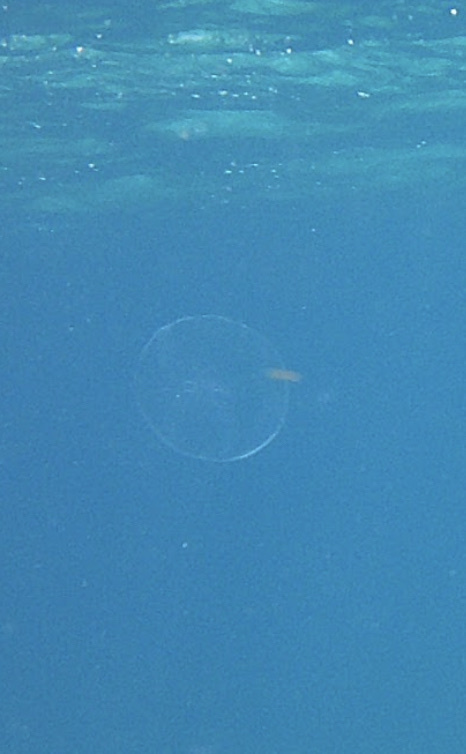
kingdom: Animalia
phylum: Cnidaria
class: Scyphozoa
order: Semaeostomeae
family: Ulmaridae
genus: Aurelia
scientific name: Aurelia marginalis
